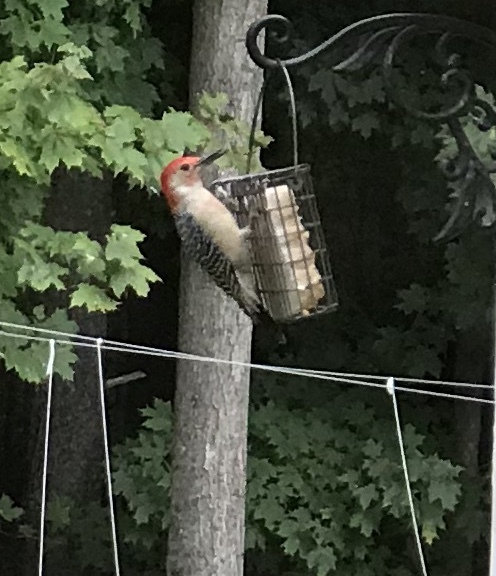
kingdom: Animalia
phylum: Chordata
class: Aves
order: Piciformes
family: Picidae
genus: Melanerpes
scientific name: Melanerpes carolinus
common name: Red-bellied woodpecker
